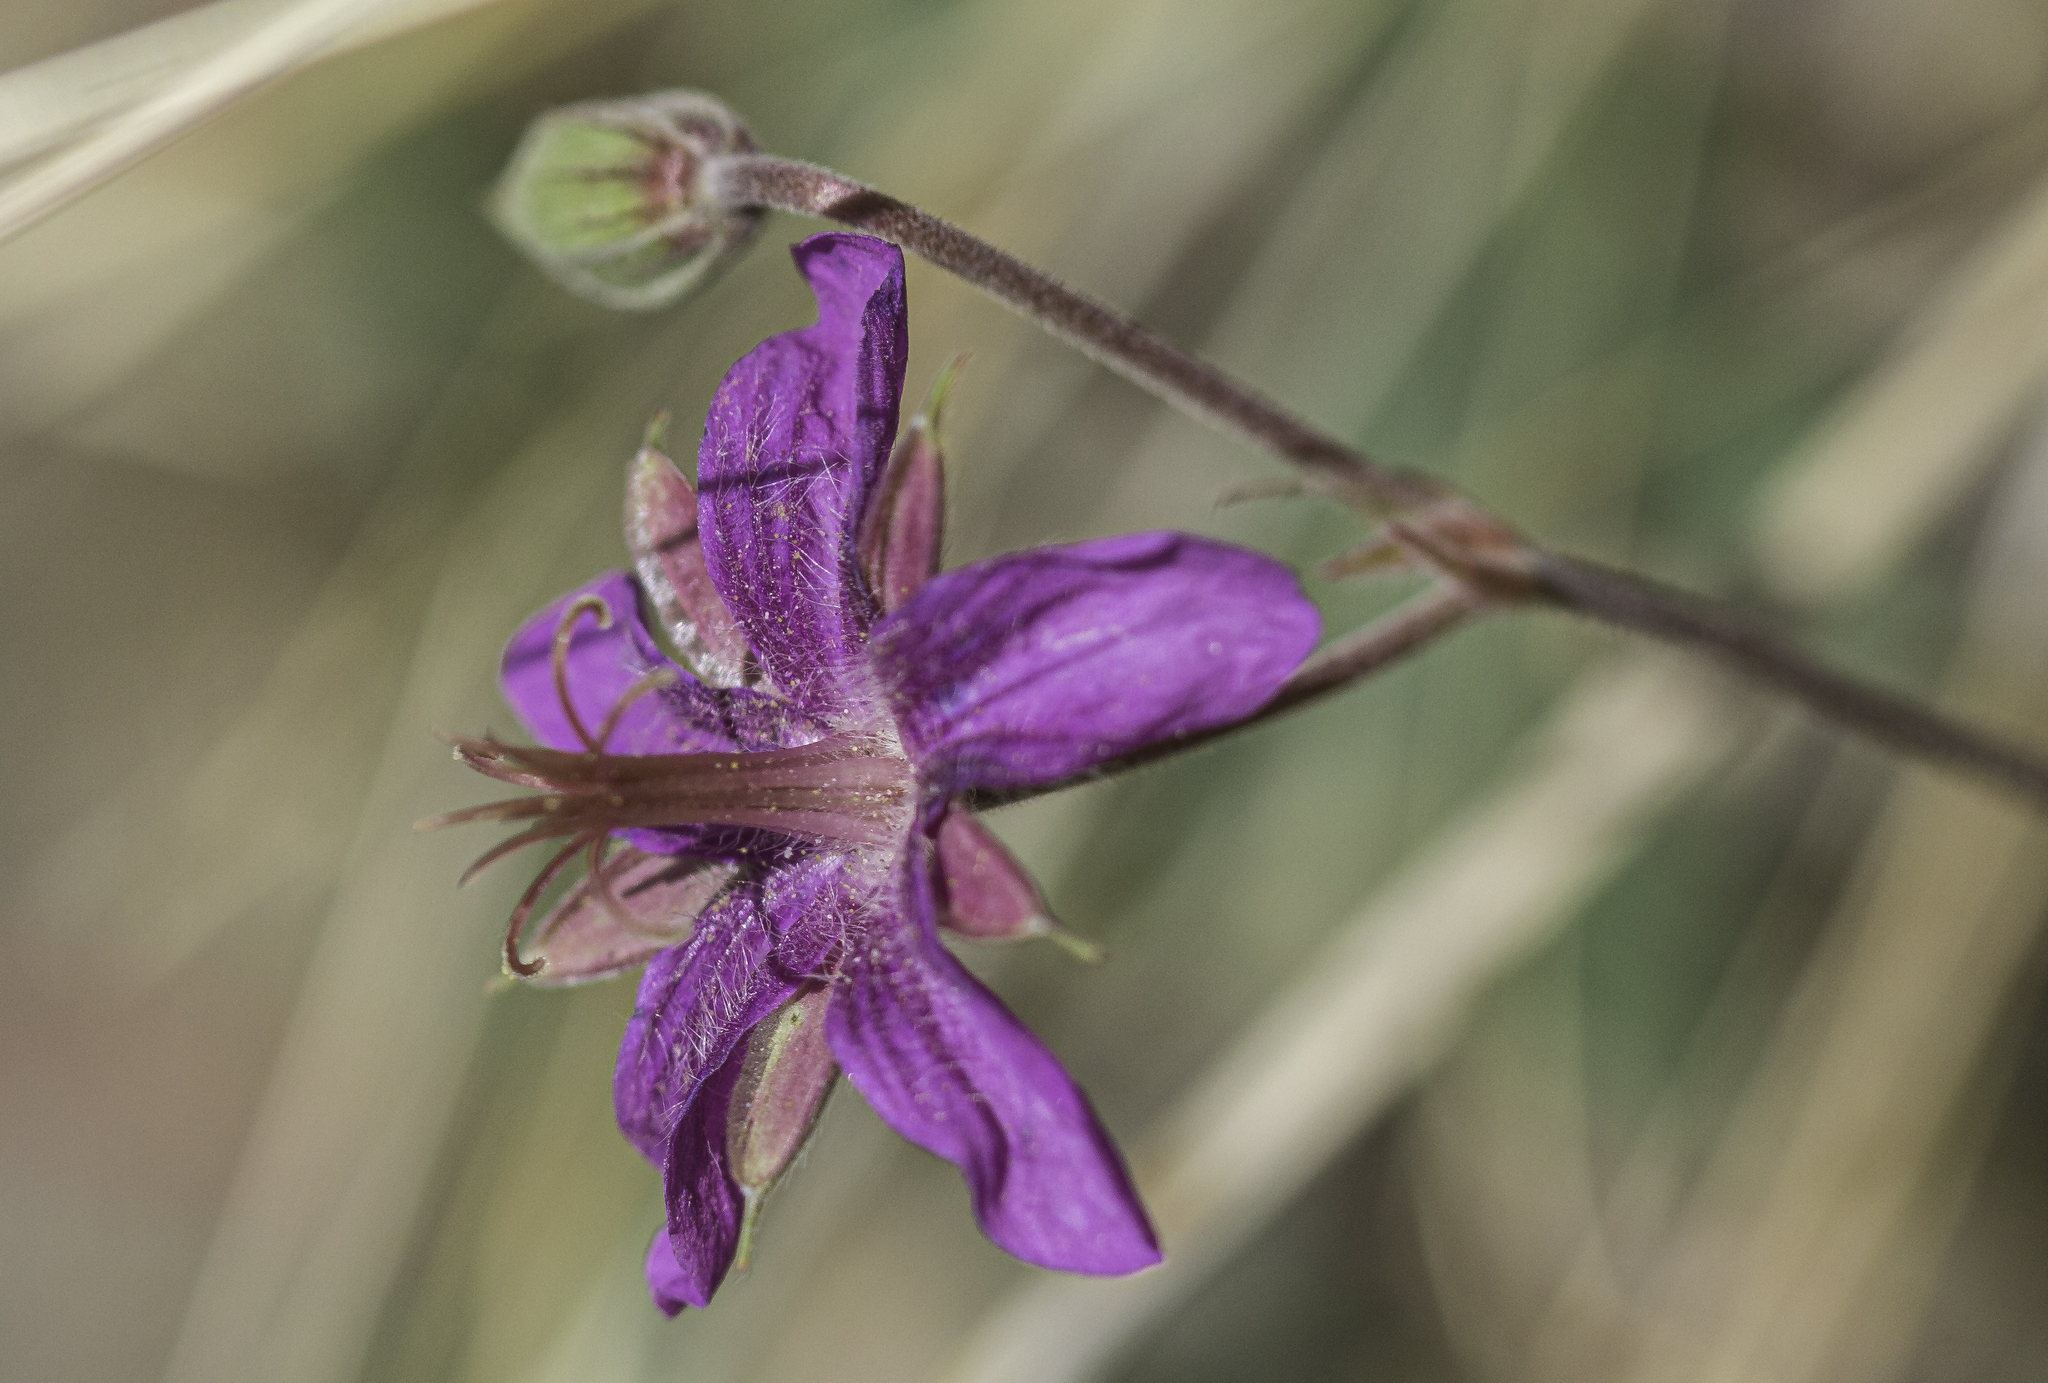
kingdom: Plantae
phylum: Tracheophyta
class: Magnoliopsida
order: Geraniales
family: Geraniaceae
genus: Geranium
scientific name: Geranium caespitosum
